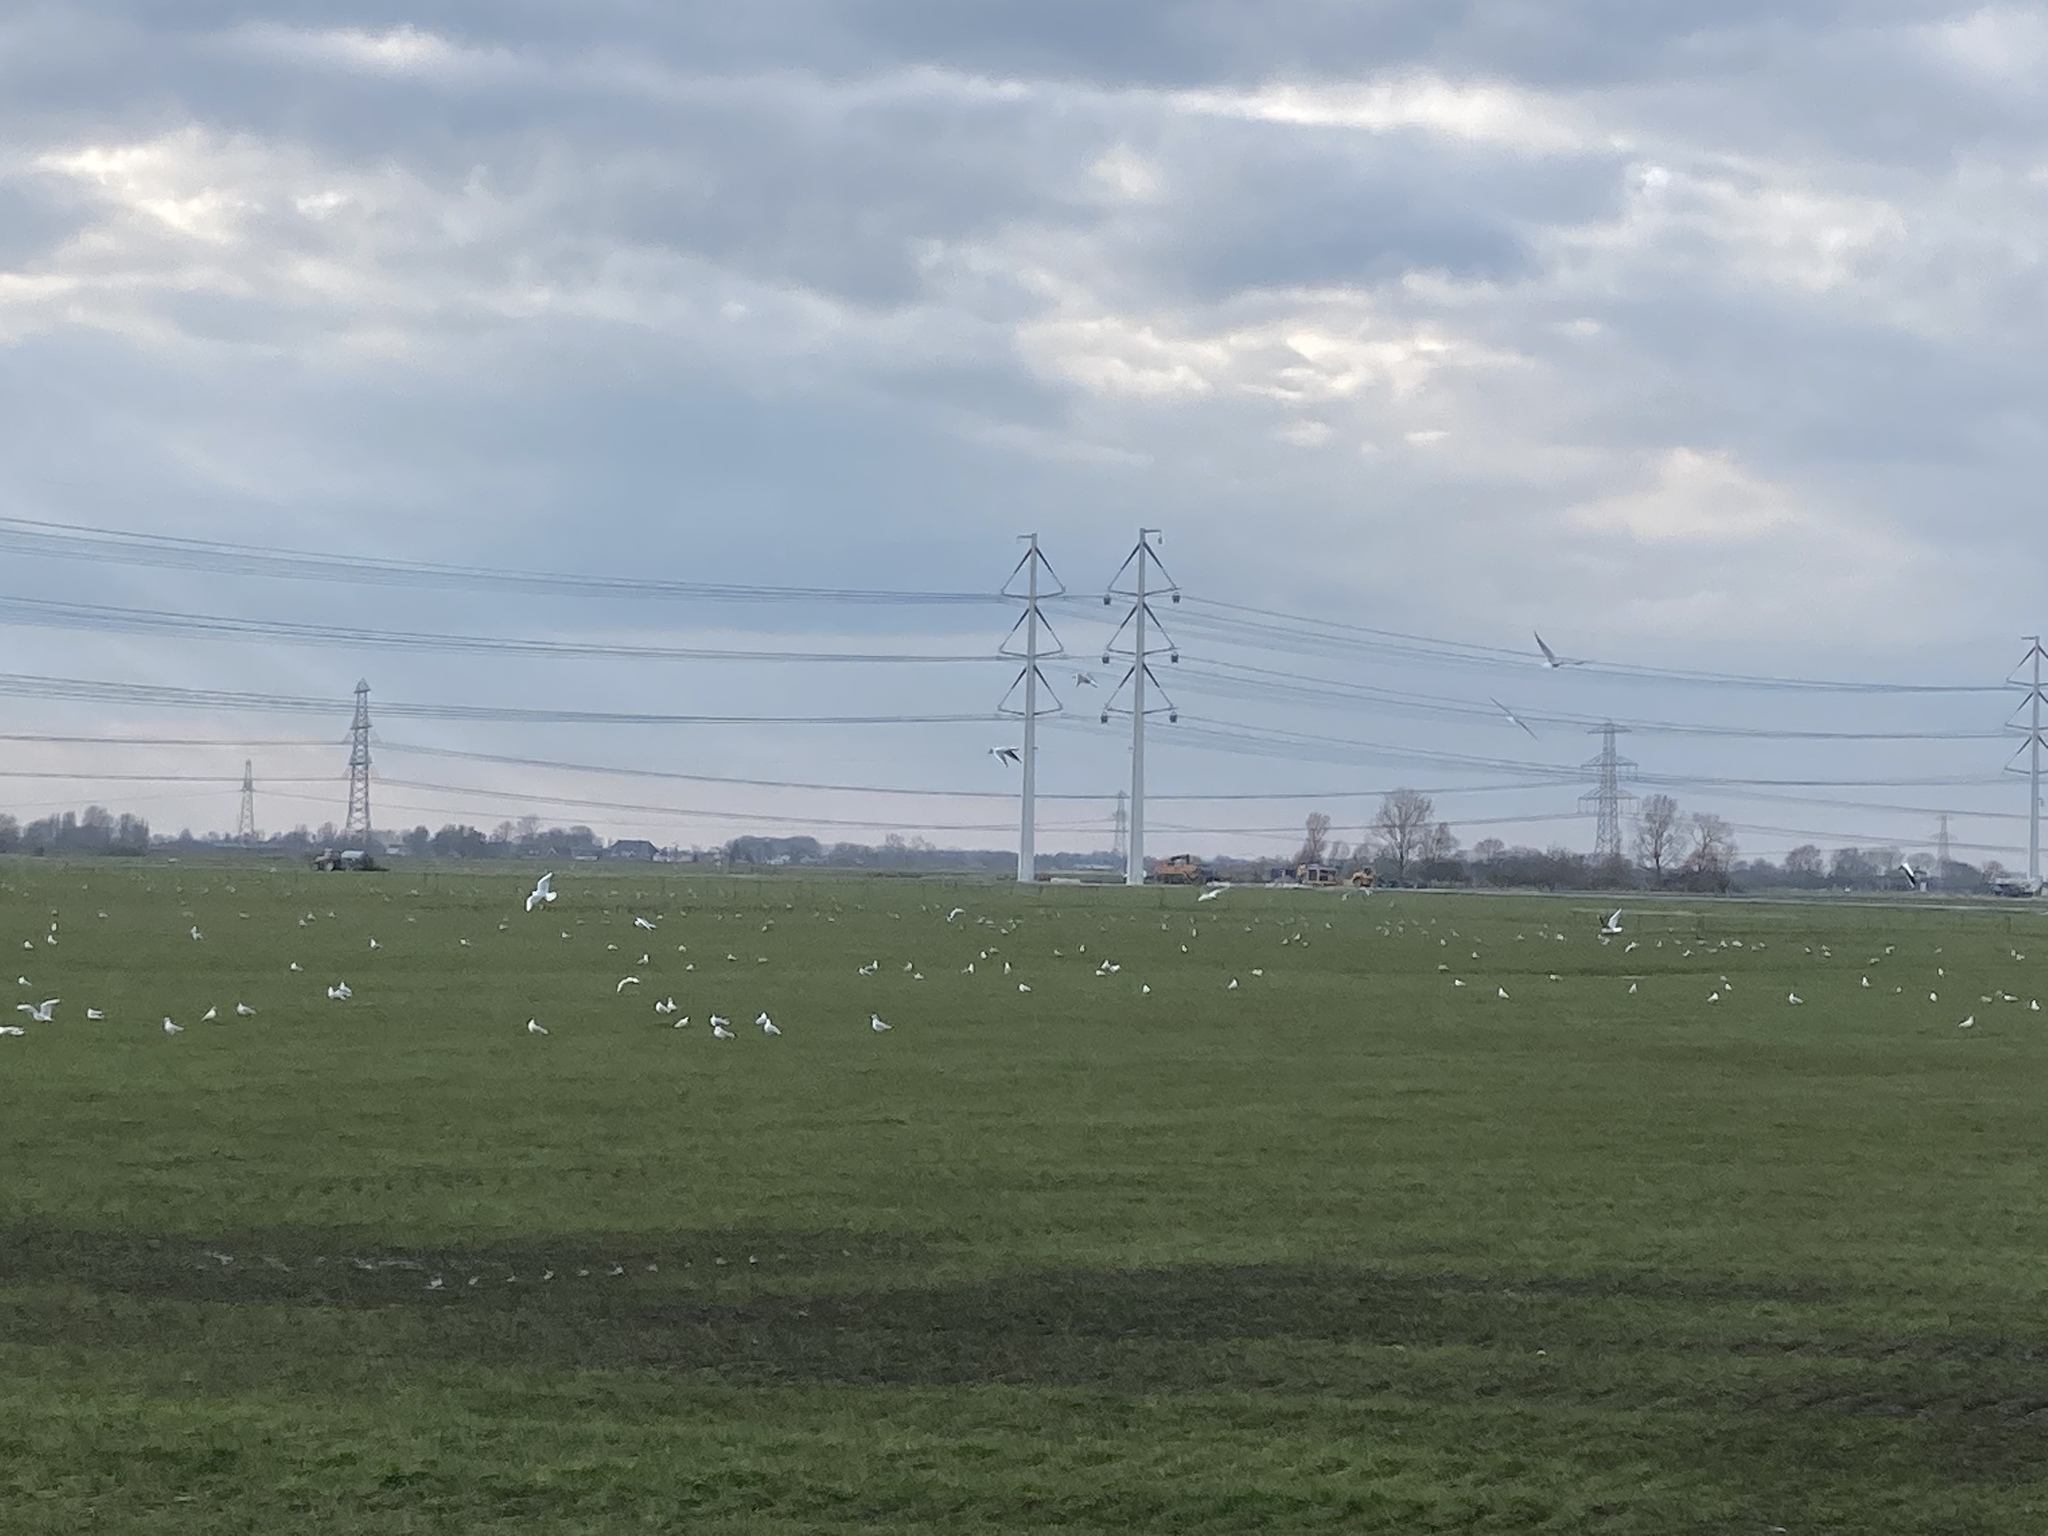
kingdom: Animalia
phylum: Chordata
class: Aves
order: Charadriiformes
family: Laridae
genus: Chroicocephalus
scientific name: Chroicocephalus ridibundus
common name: Black-headed gull
